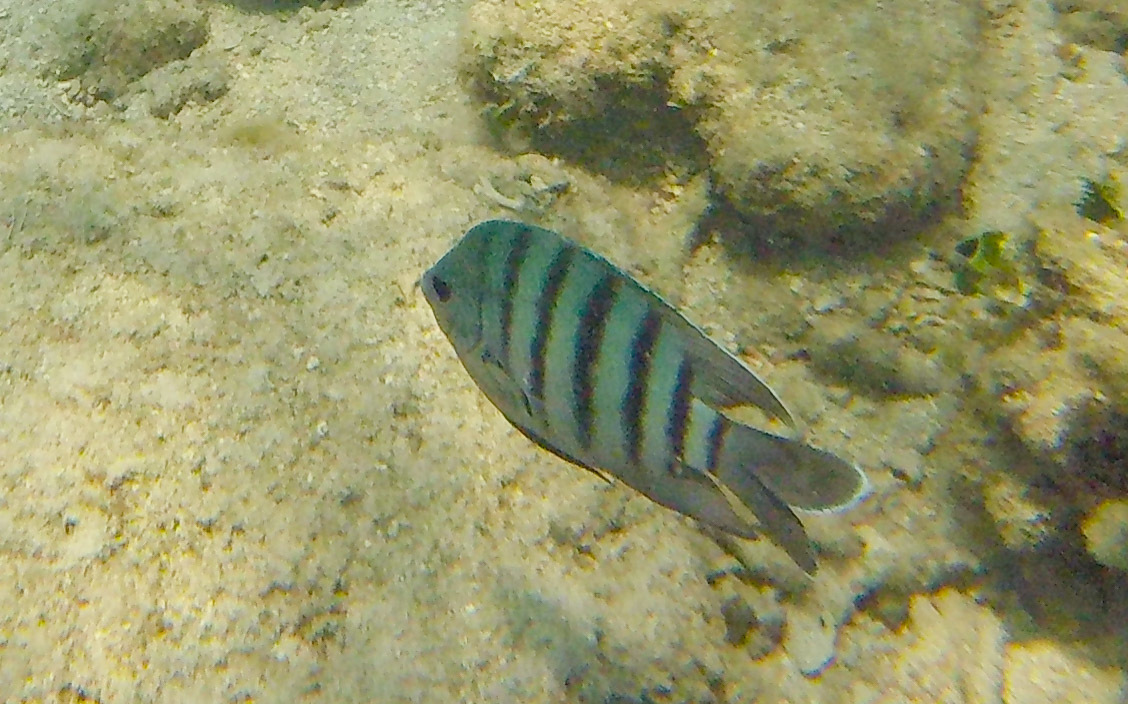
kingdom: Animalia
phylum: Chordata
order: Perciformes
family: Pomacentridae
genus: Abudefduf
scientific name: Abudefduf bengalensis
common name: Bengal sergeant
